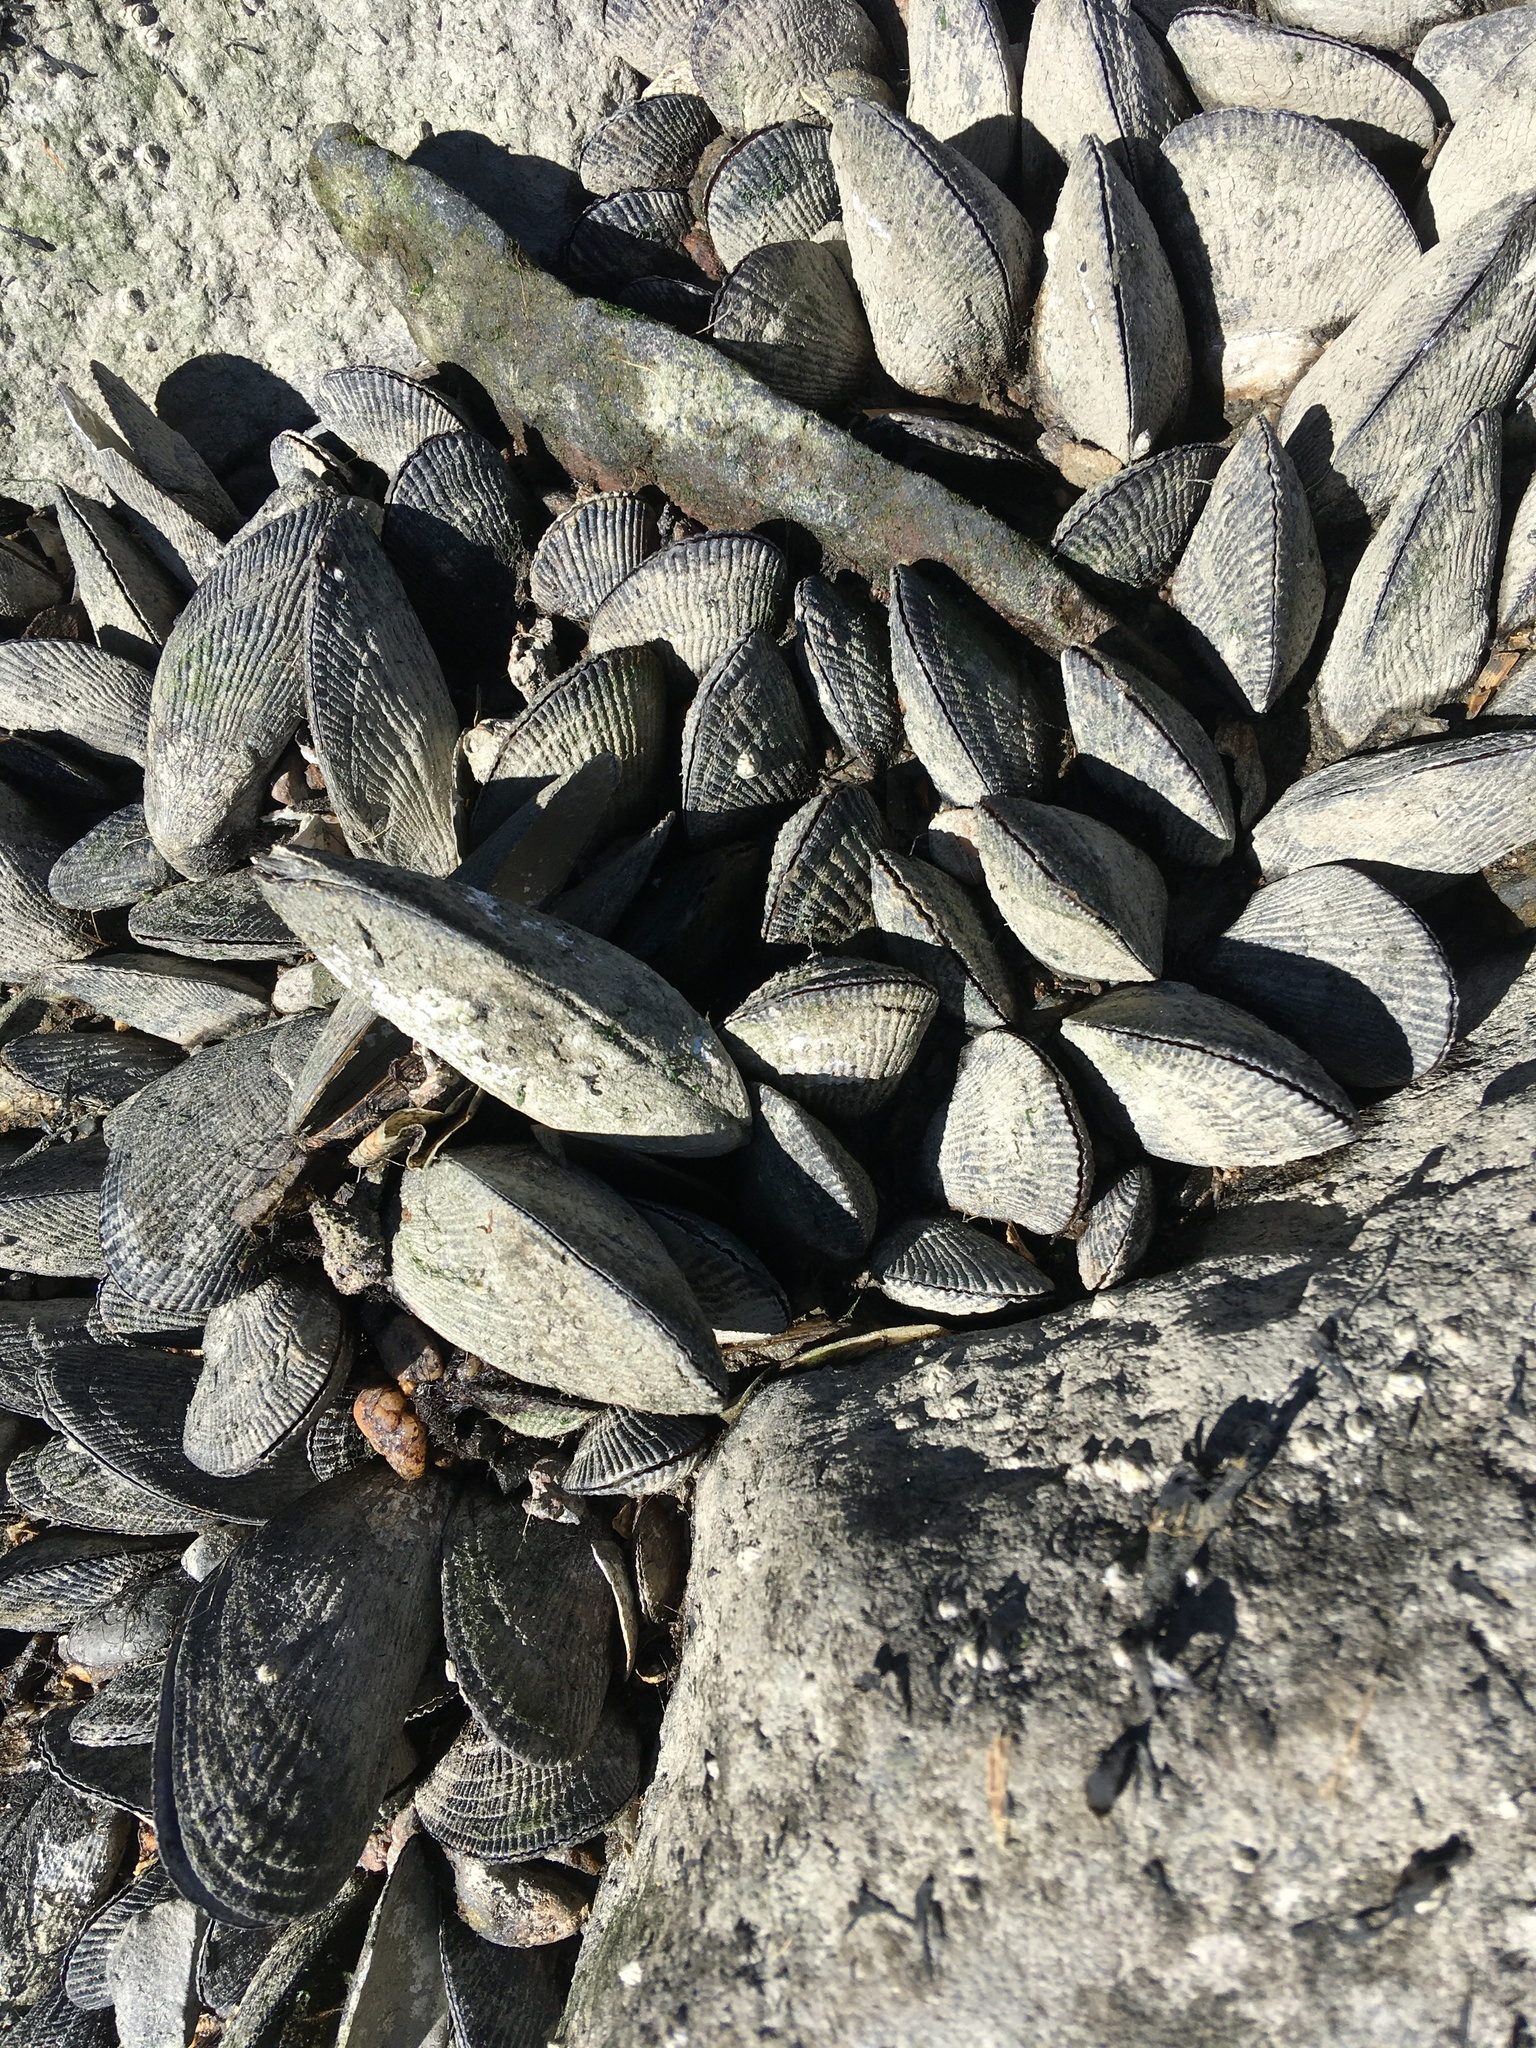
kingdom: Animalia
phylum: Mollusca
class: Bivalvia
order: Mytilida
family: Mytilidae
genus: Geukensia
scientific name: Geukensia demissa
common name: Ribbed mussel
